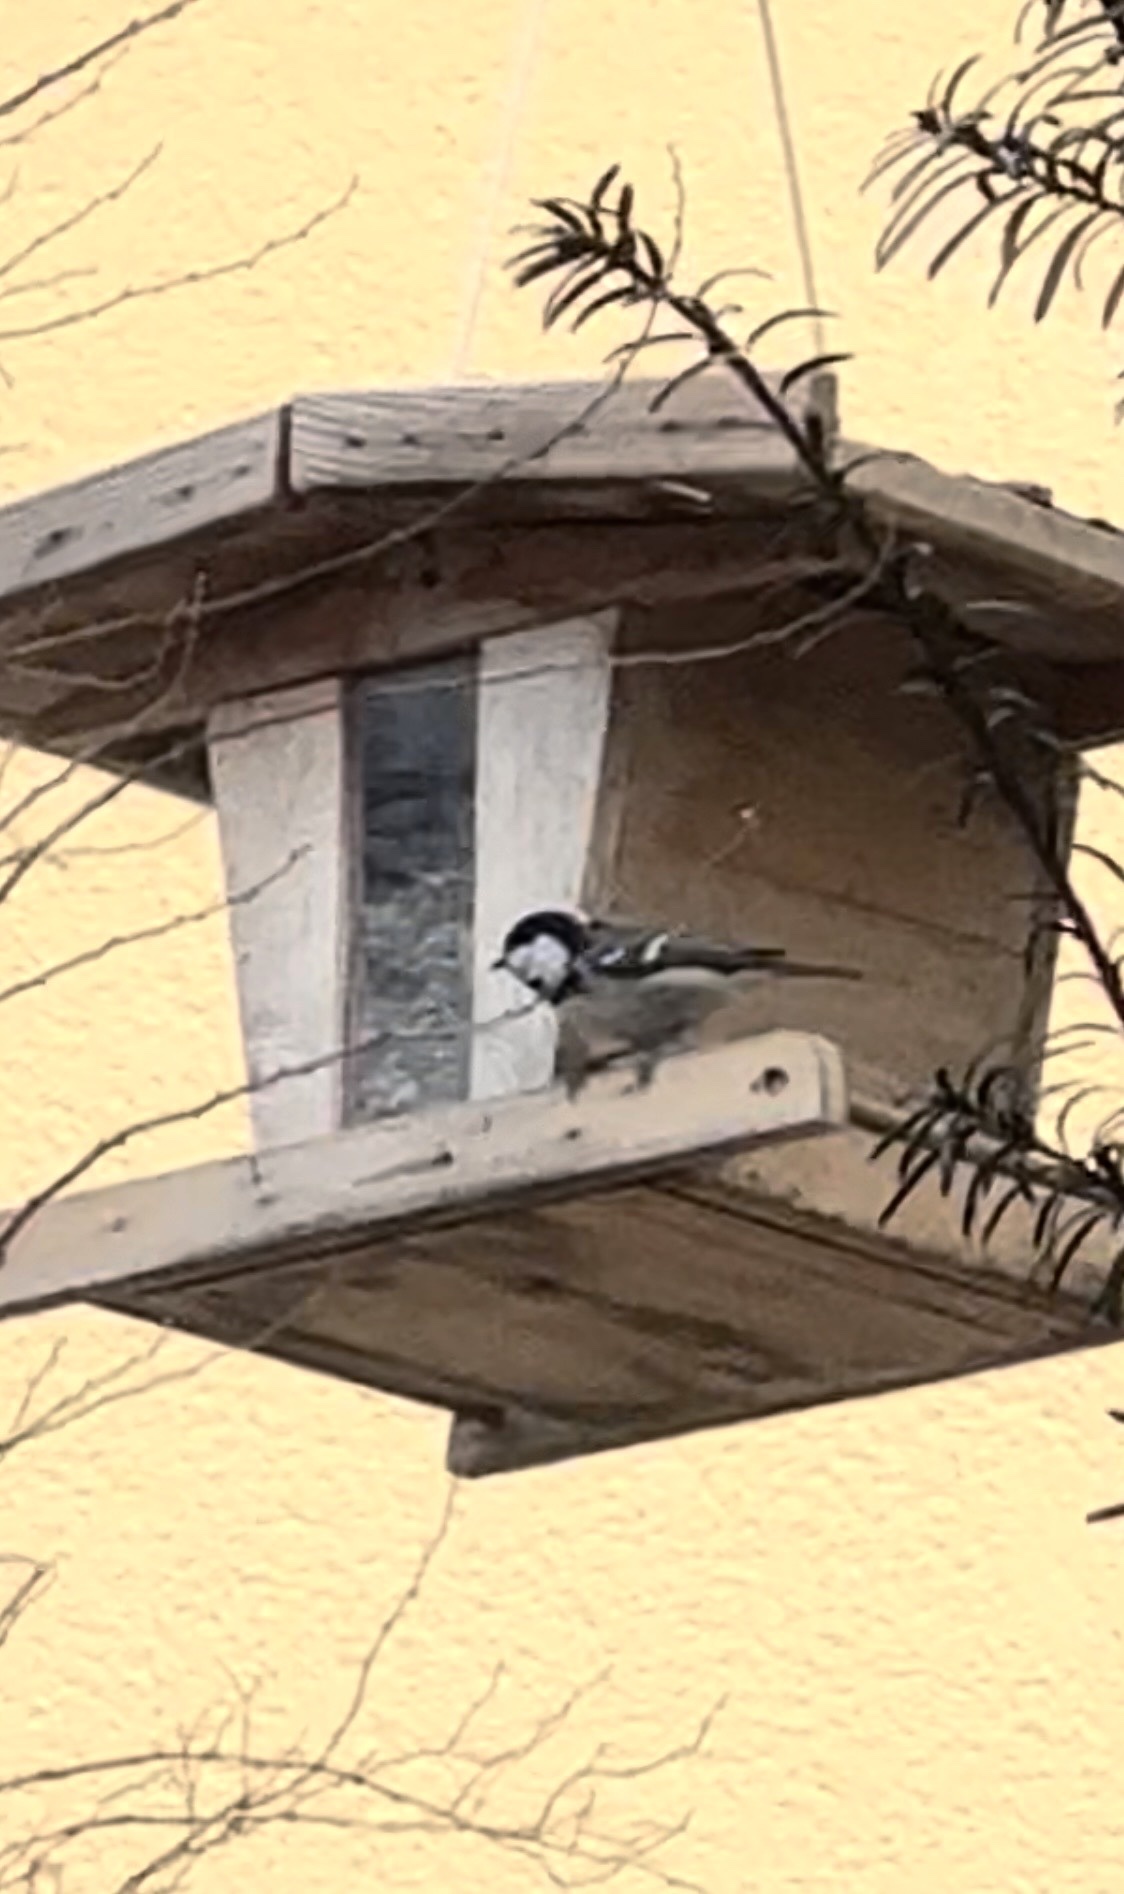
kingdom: Animalia
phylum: Chordata
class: Aves
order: Passeriformes
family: Paridae
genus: Periparus
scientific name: Periparus ater
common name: Coal tit
